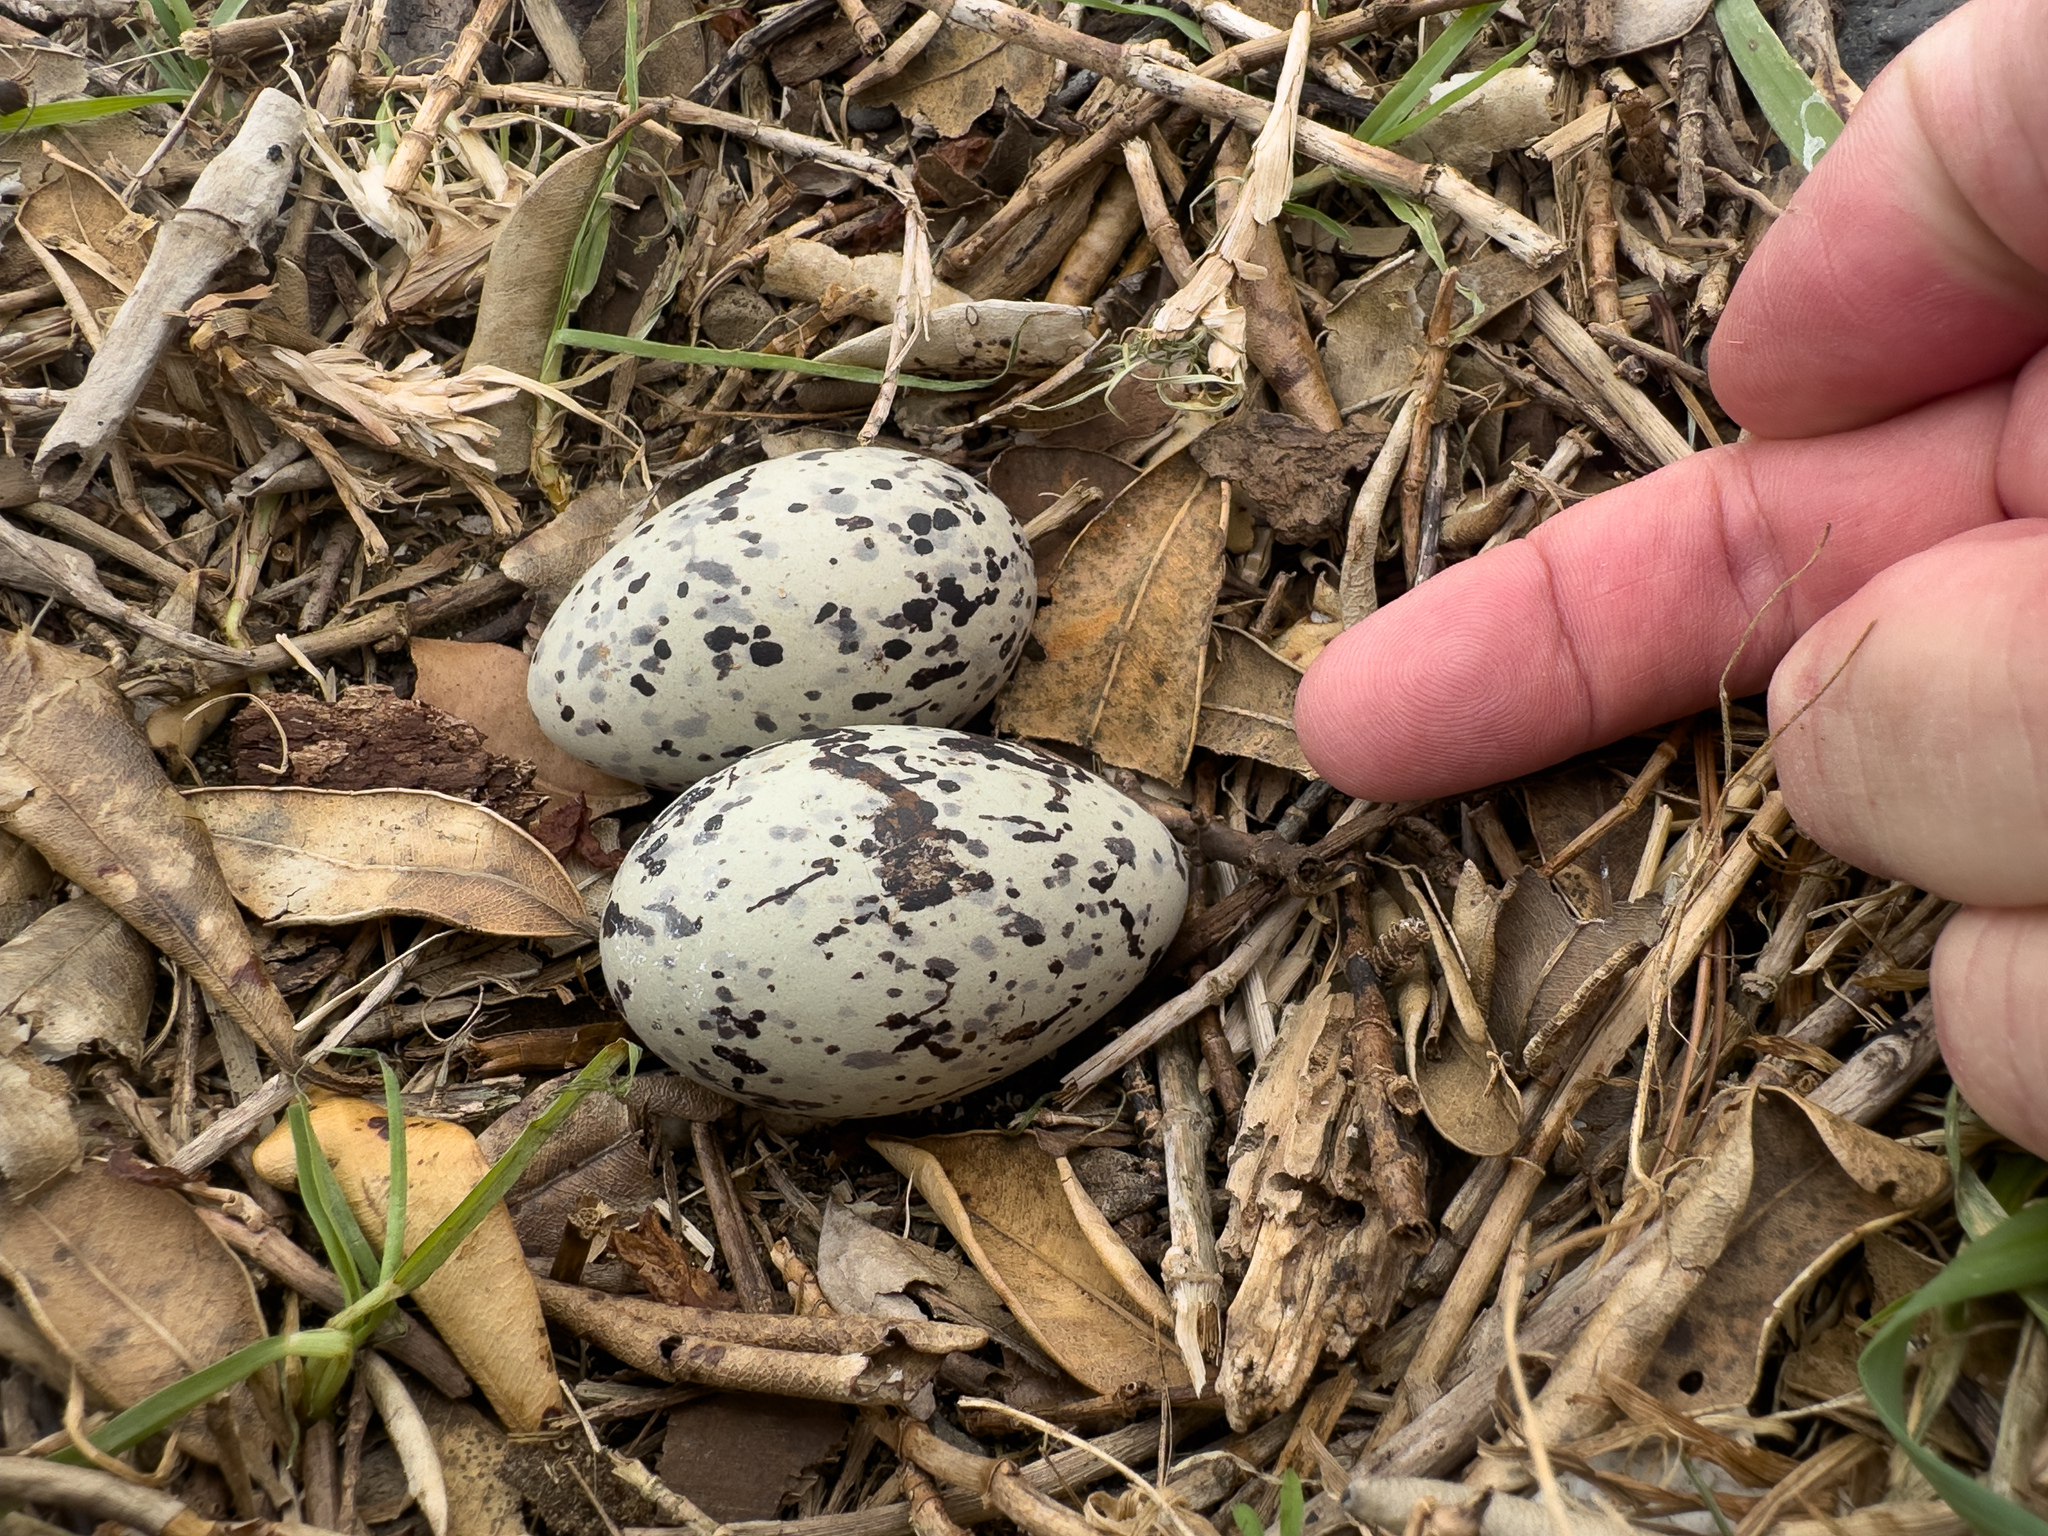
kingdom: Animalia
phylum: Chordata
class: Aves
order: Charadriiformes
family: Haematopodidae
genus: Haematopus
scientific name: Haematopus unicolor
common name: Variable oystercatcher
